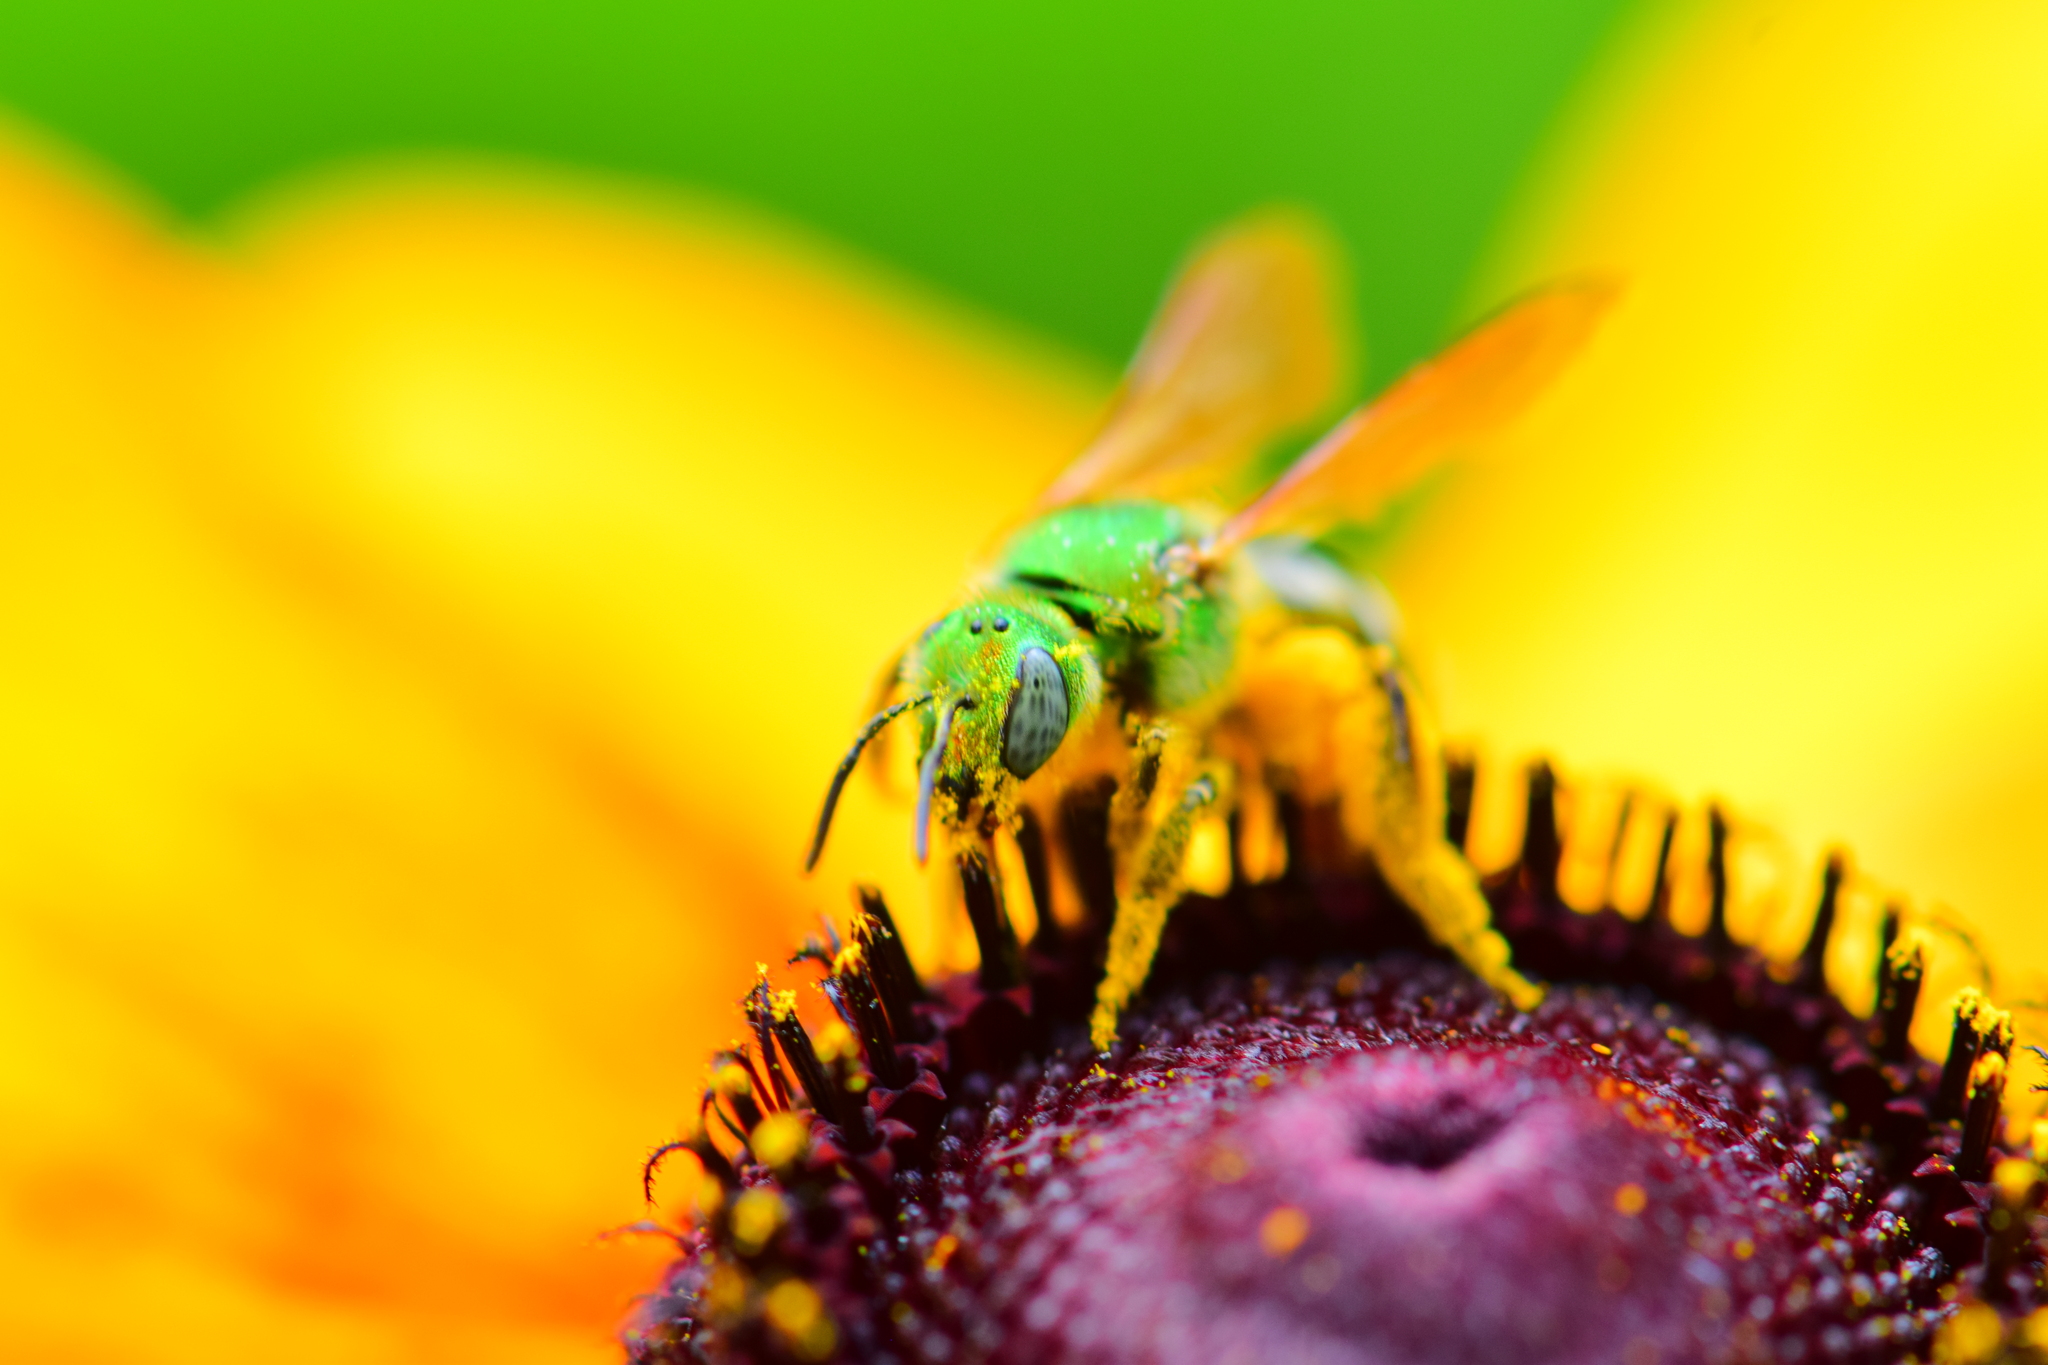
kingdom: Animalia
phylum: Arthropoda
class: Insecta
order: Hymenoptera
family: Halictidae
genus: Agapostemon
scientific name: Agapostemon virescens
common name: Bicolored striped sweat bee
